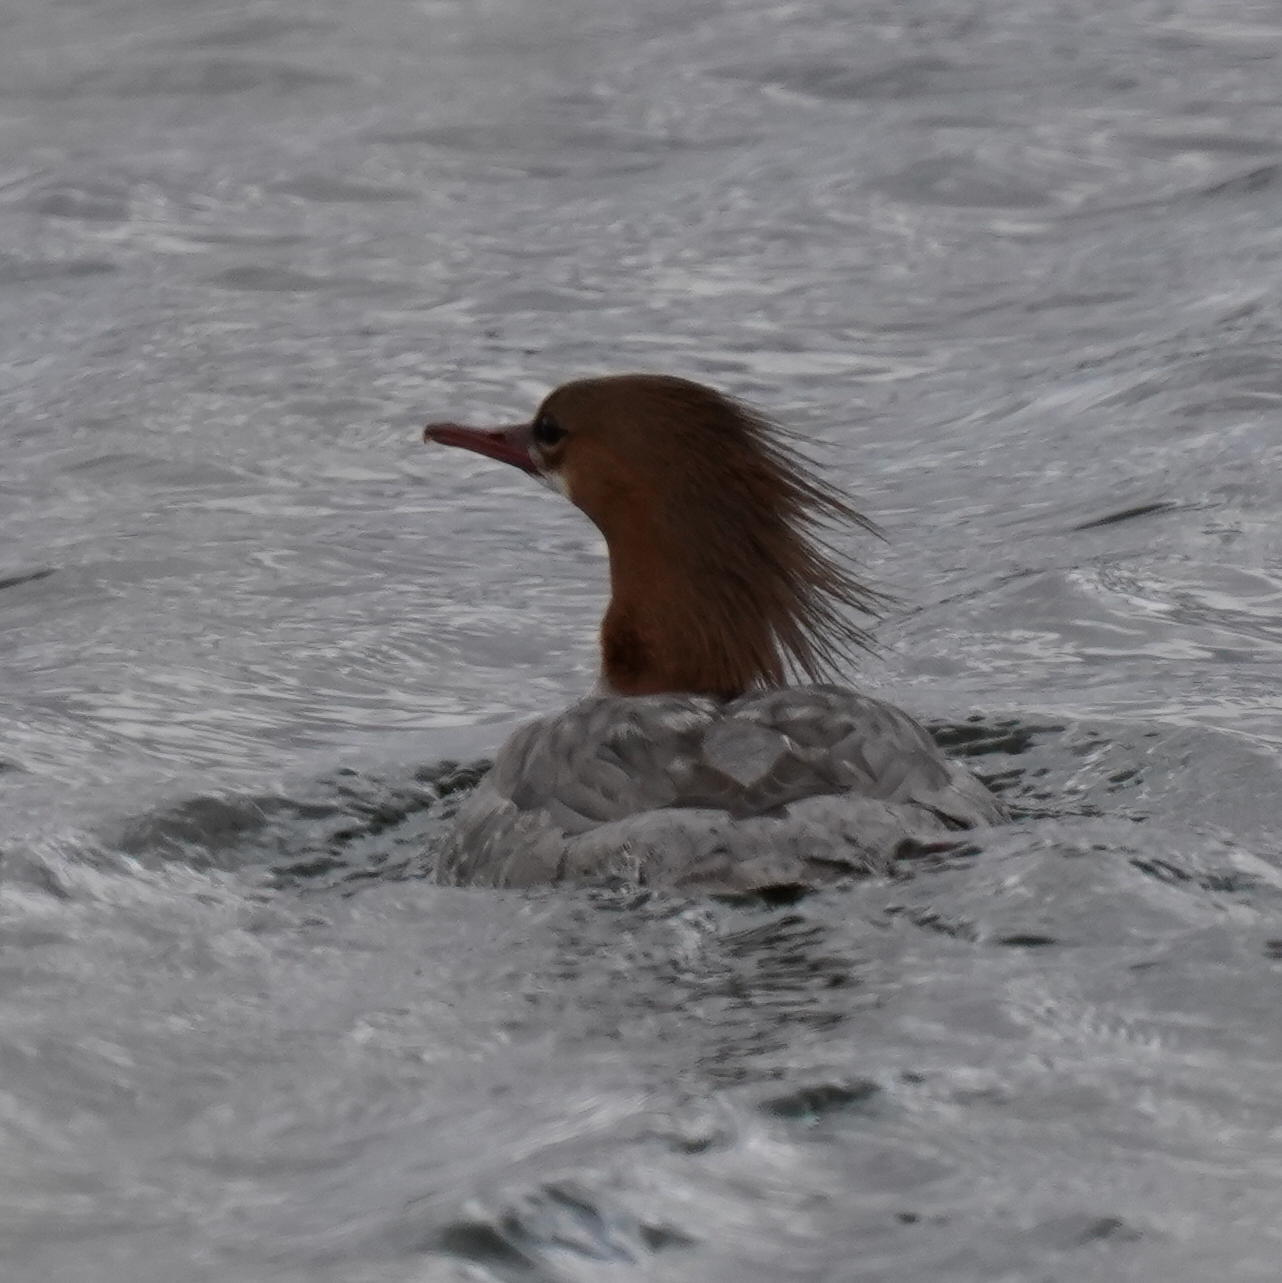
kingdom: Animalia
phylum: Chordata
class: Aves
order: Anseriformes
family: Anatidae
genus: Mergus
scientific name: Mergus merganser
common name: Common merganser
